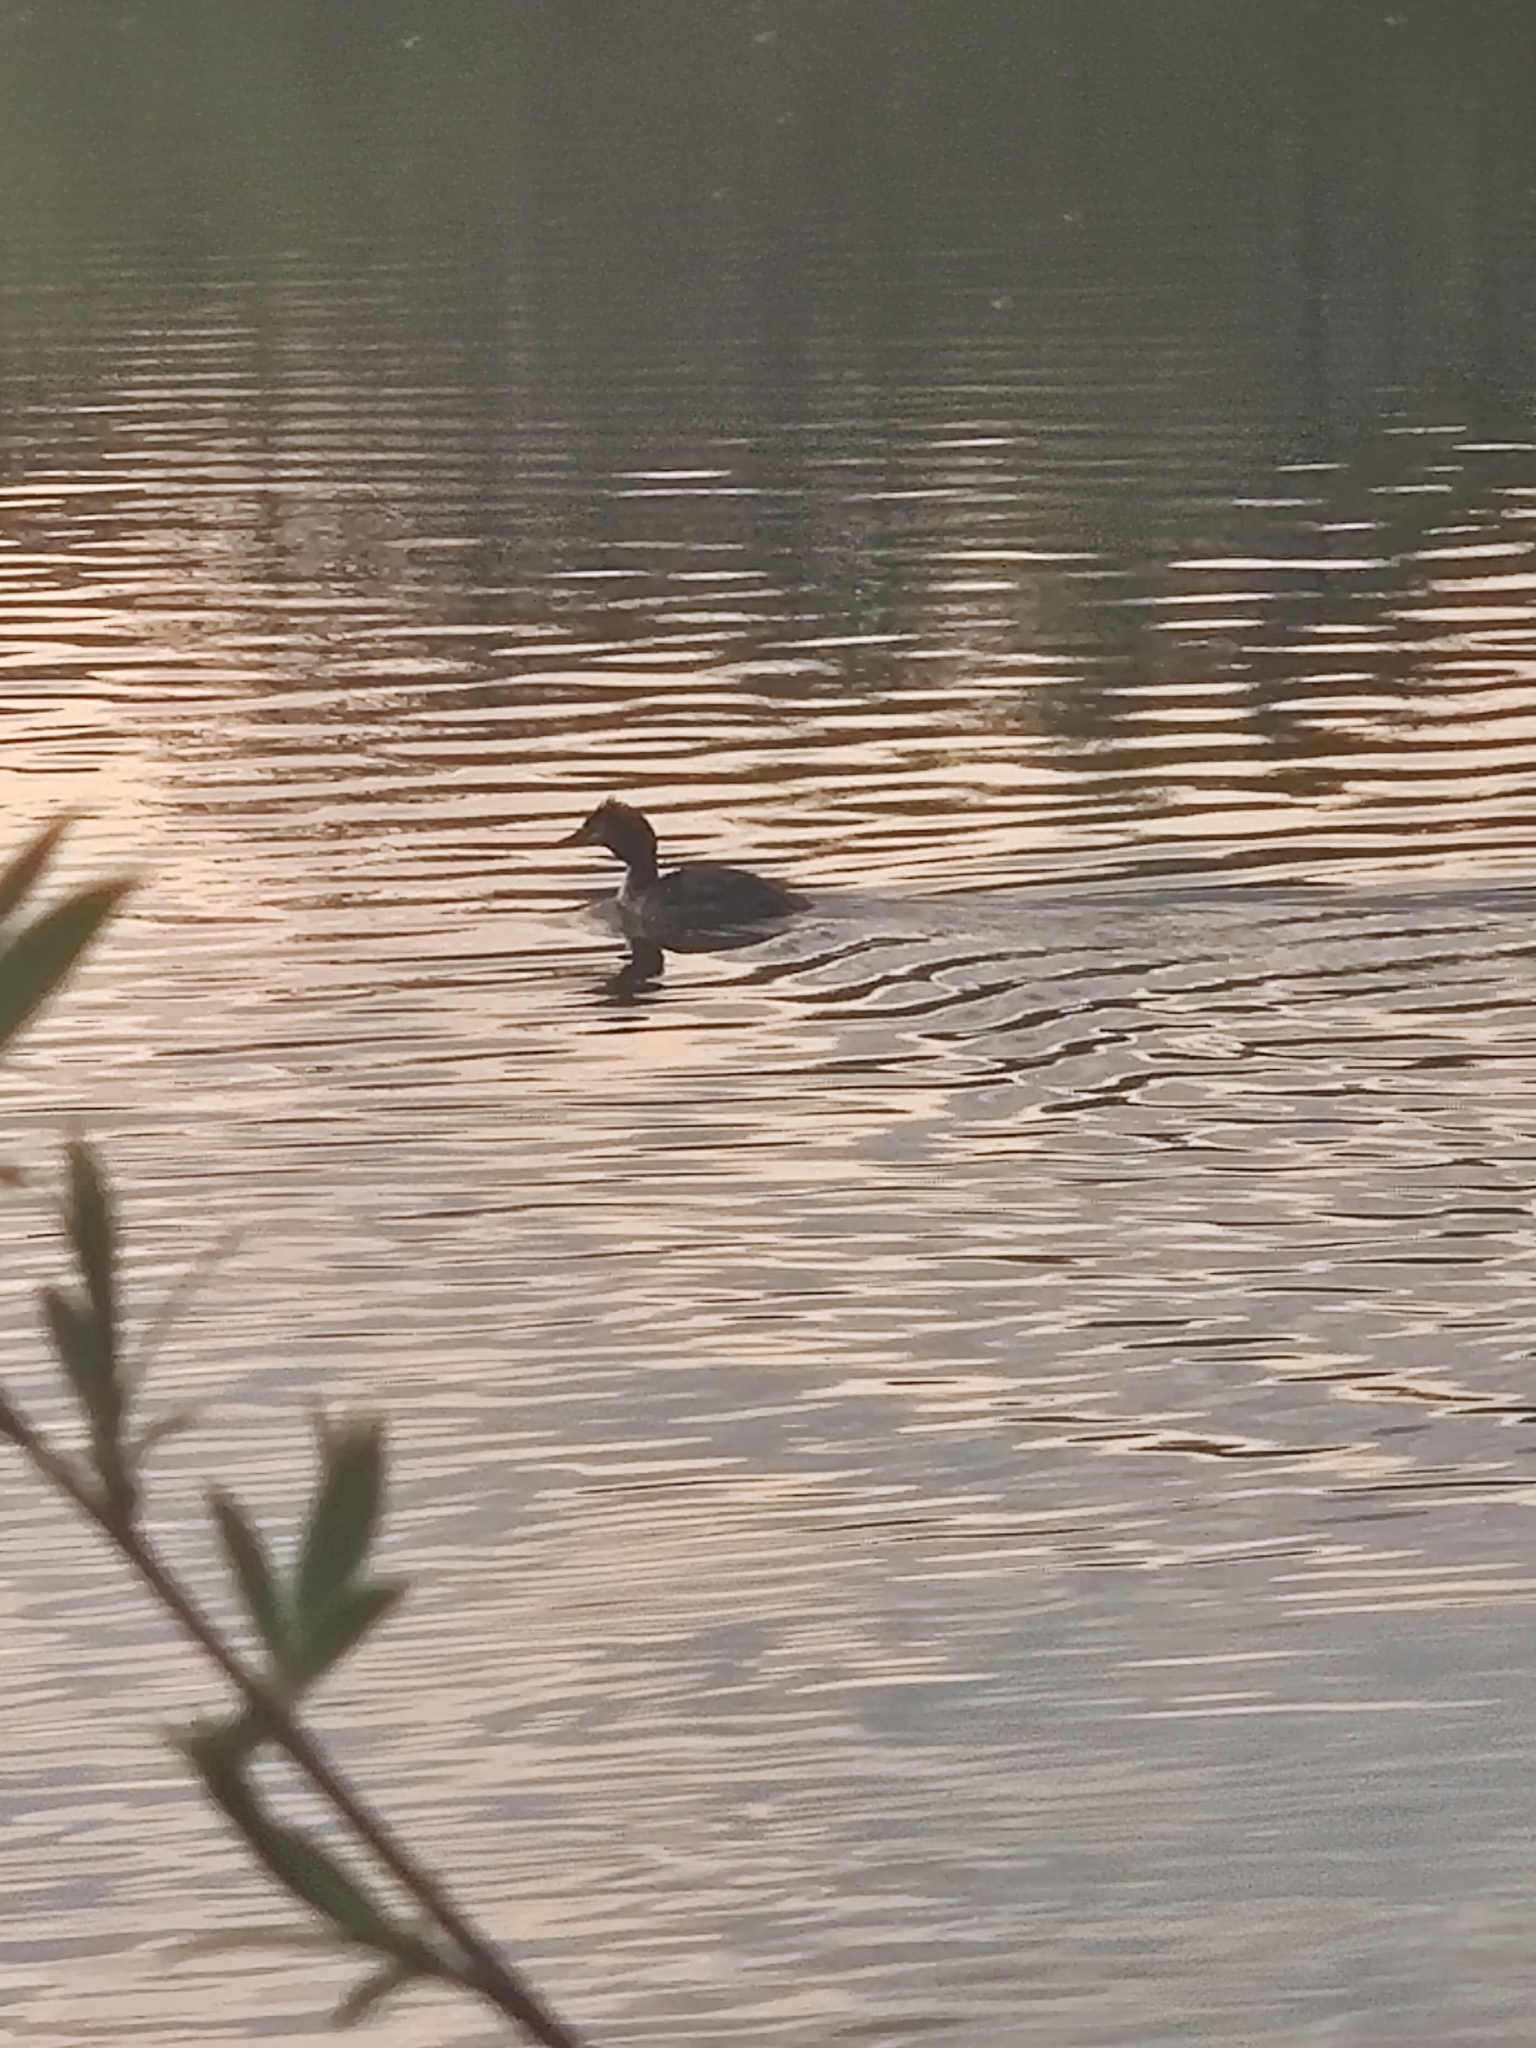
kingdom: Animalia
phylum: Chordata
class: Aves
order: Podicipediformes
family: Podicipedidae
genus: Podiceps
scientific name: Podiceps cristatus
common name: Great crested grebe
